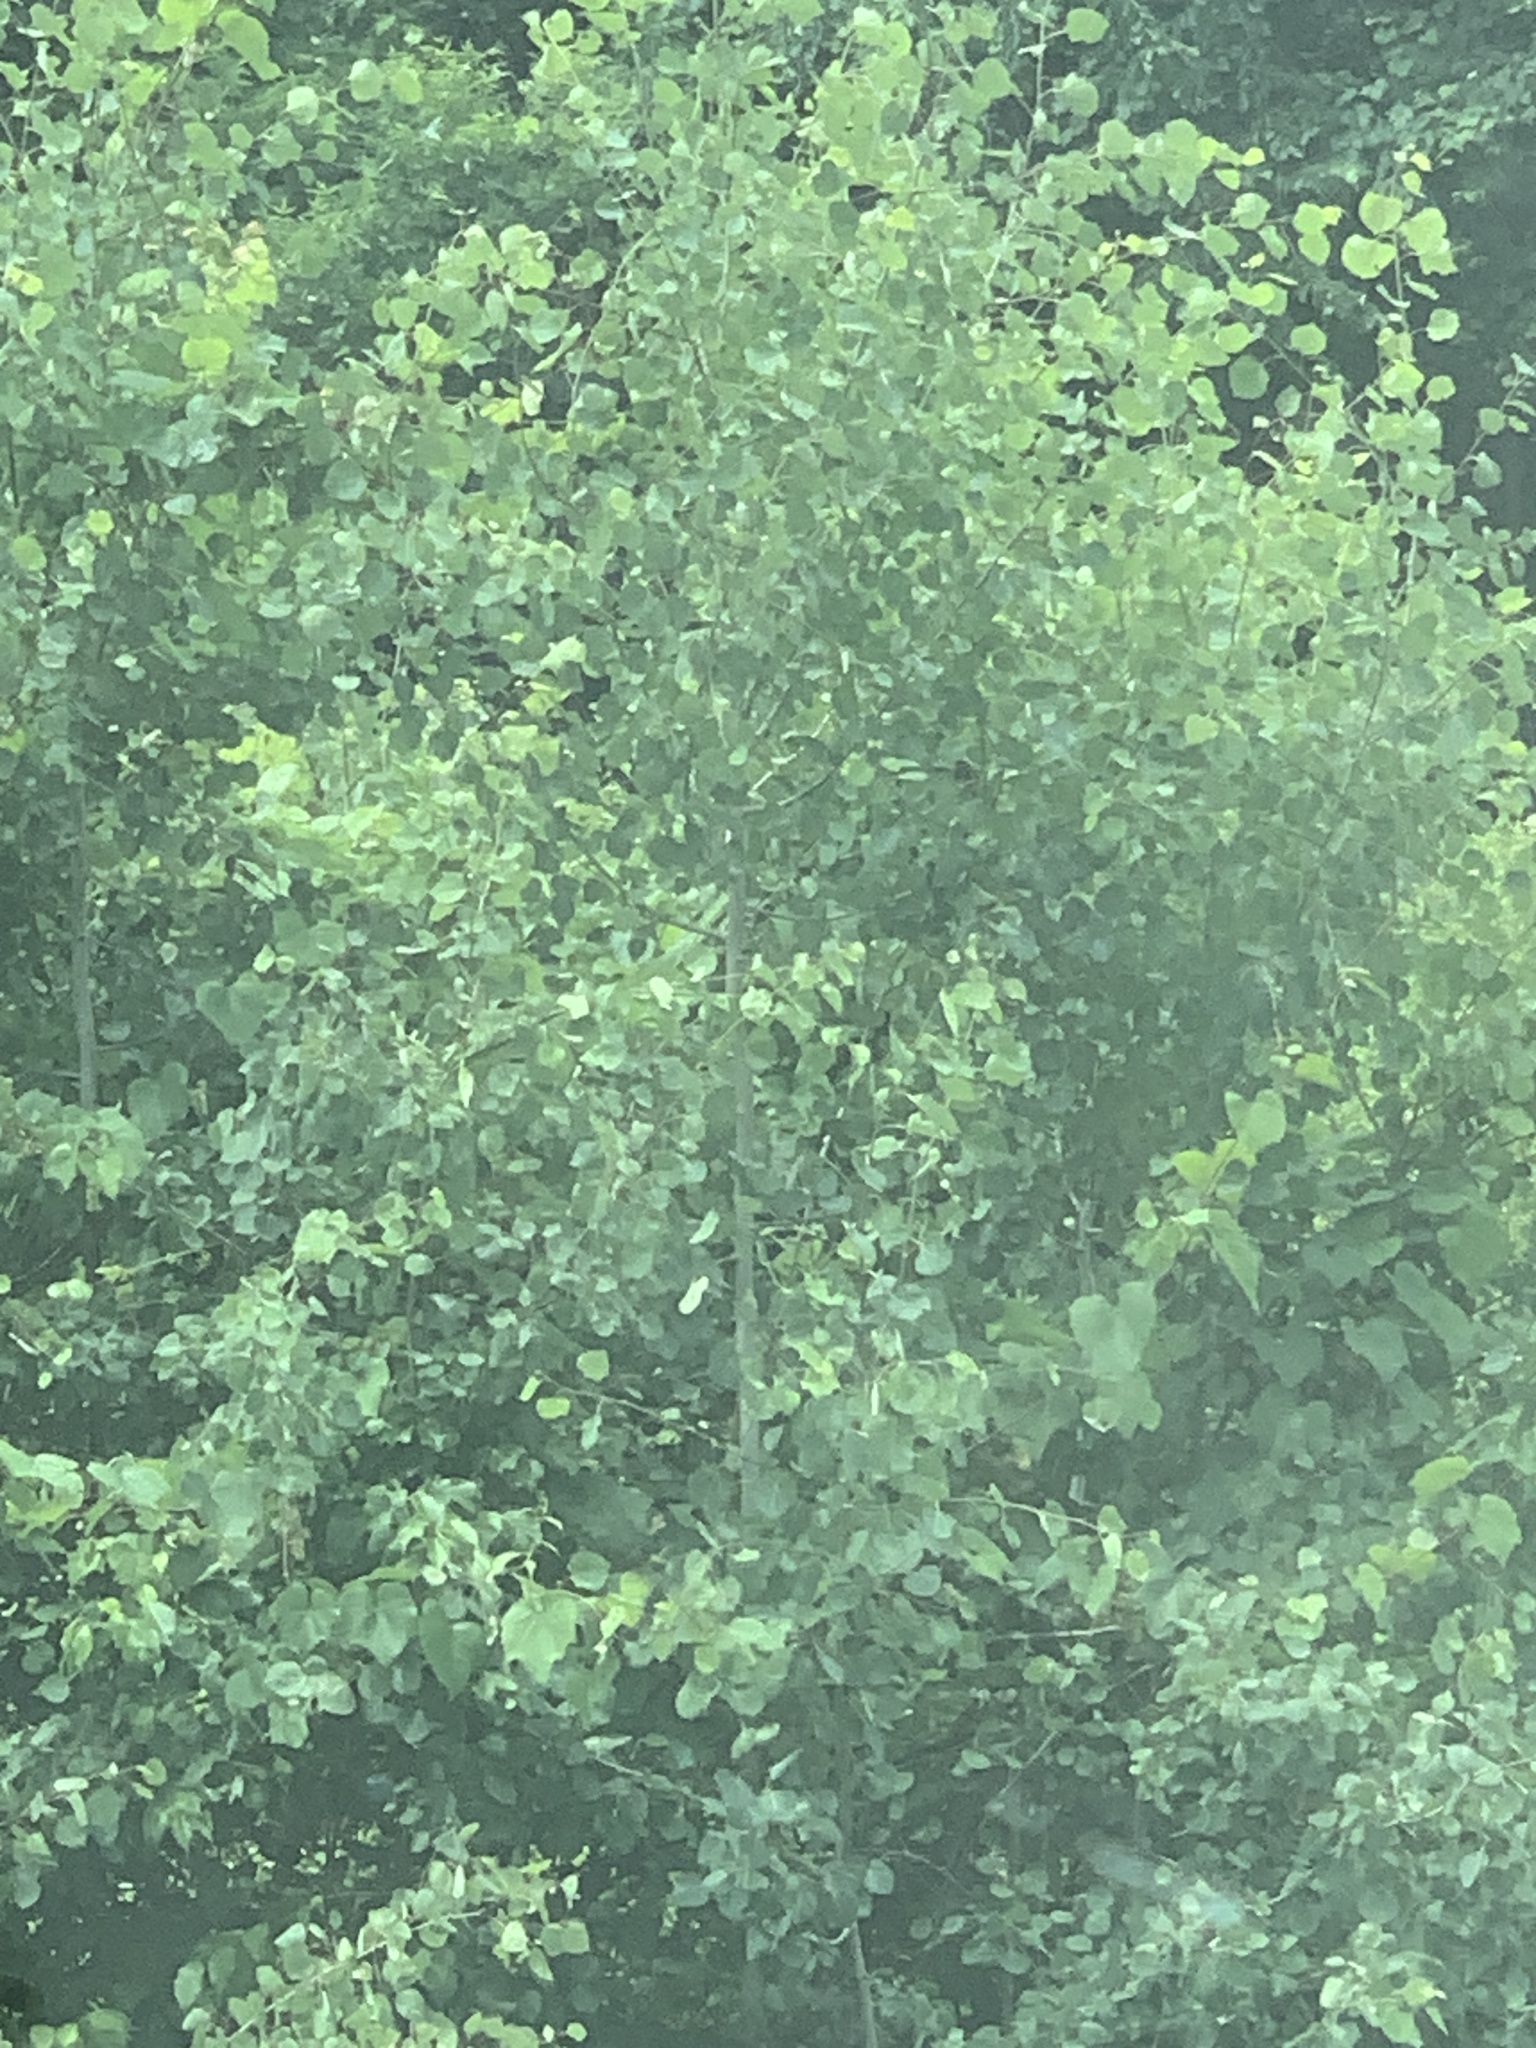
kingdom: Plantae
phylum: Tracheophyta
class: Magnoliopsida
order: Malpighiales
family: Salicaceae
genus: Populus
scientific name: Populus tremuloides
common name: Quaking aspen
